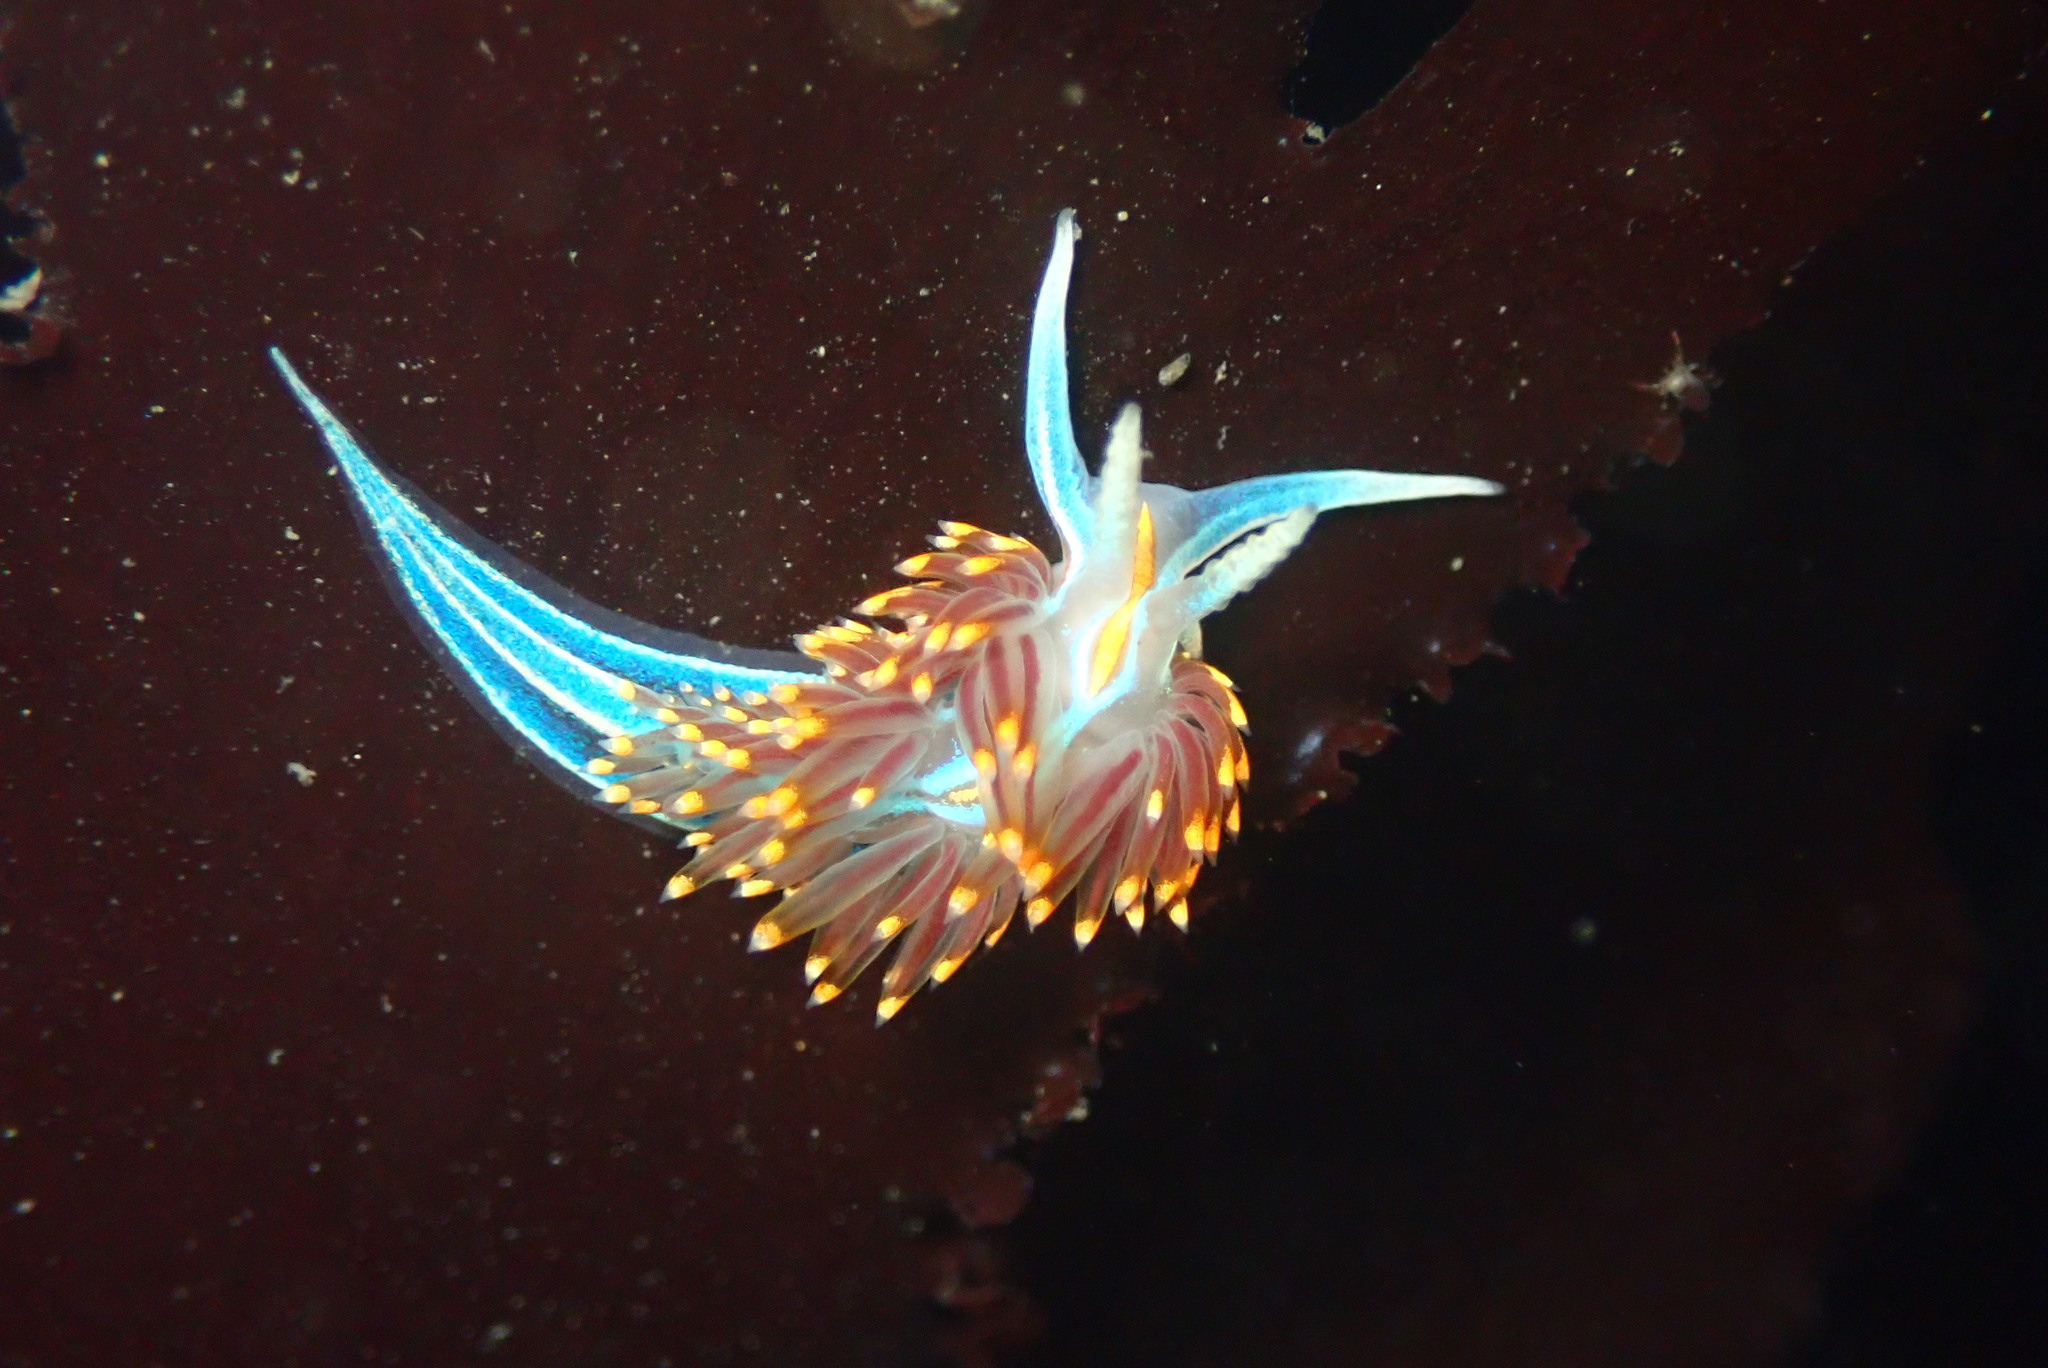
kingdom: Animalia
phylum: Mollusca
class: Gastropoda
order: Nudibranchia
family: Myrrhinidae
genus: Hermissenda
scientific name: Hermissenda opalescens
